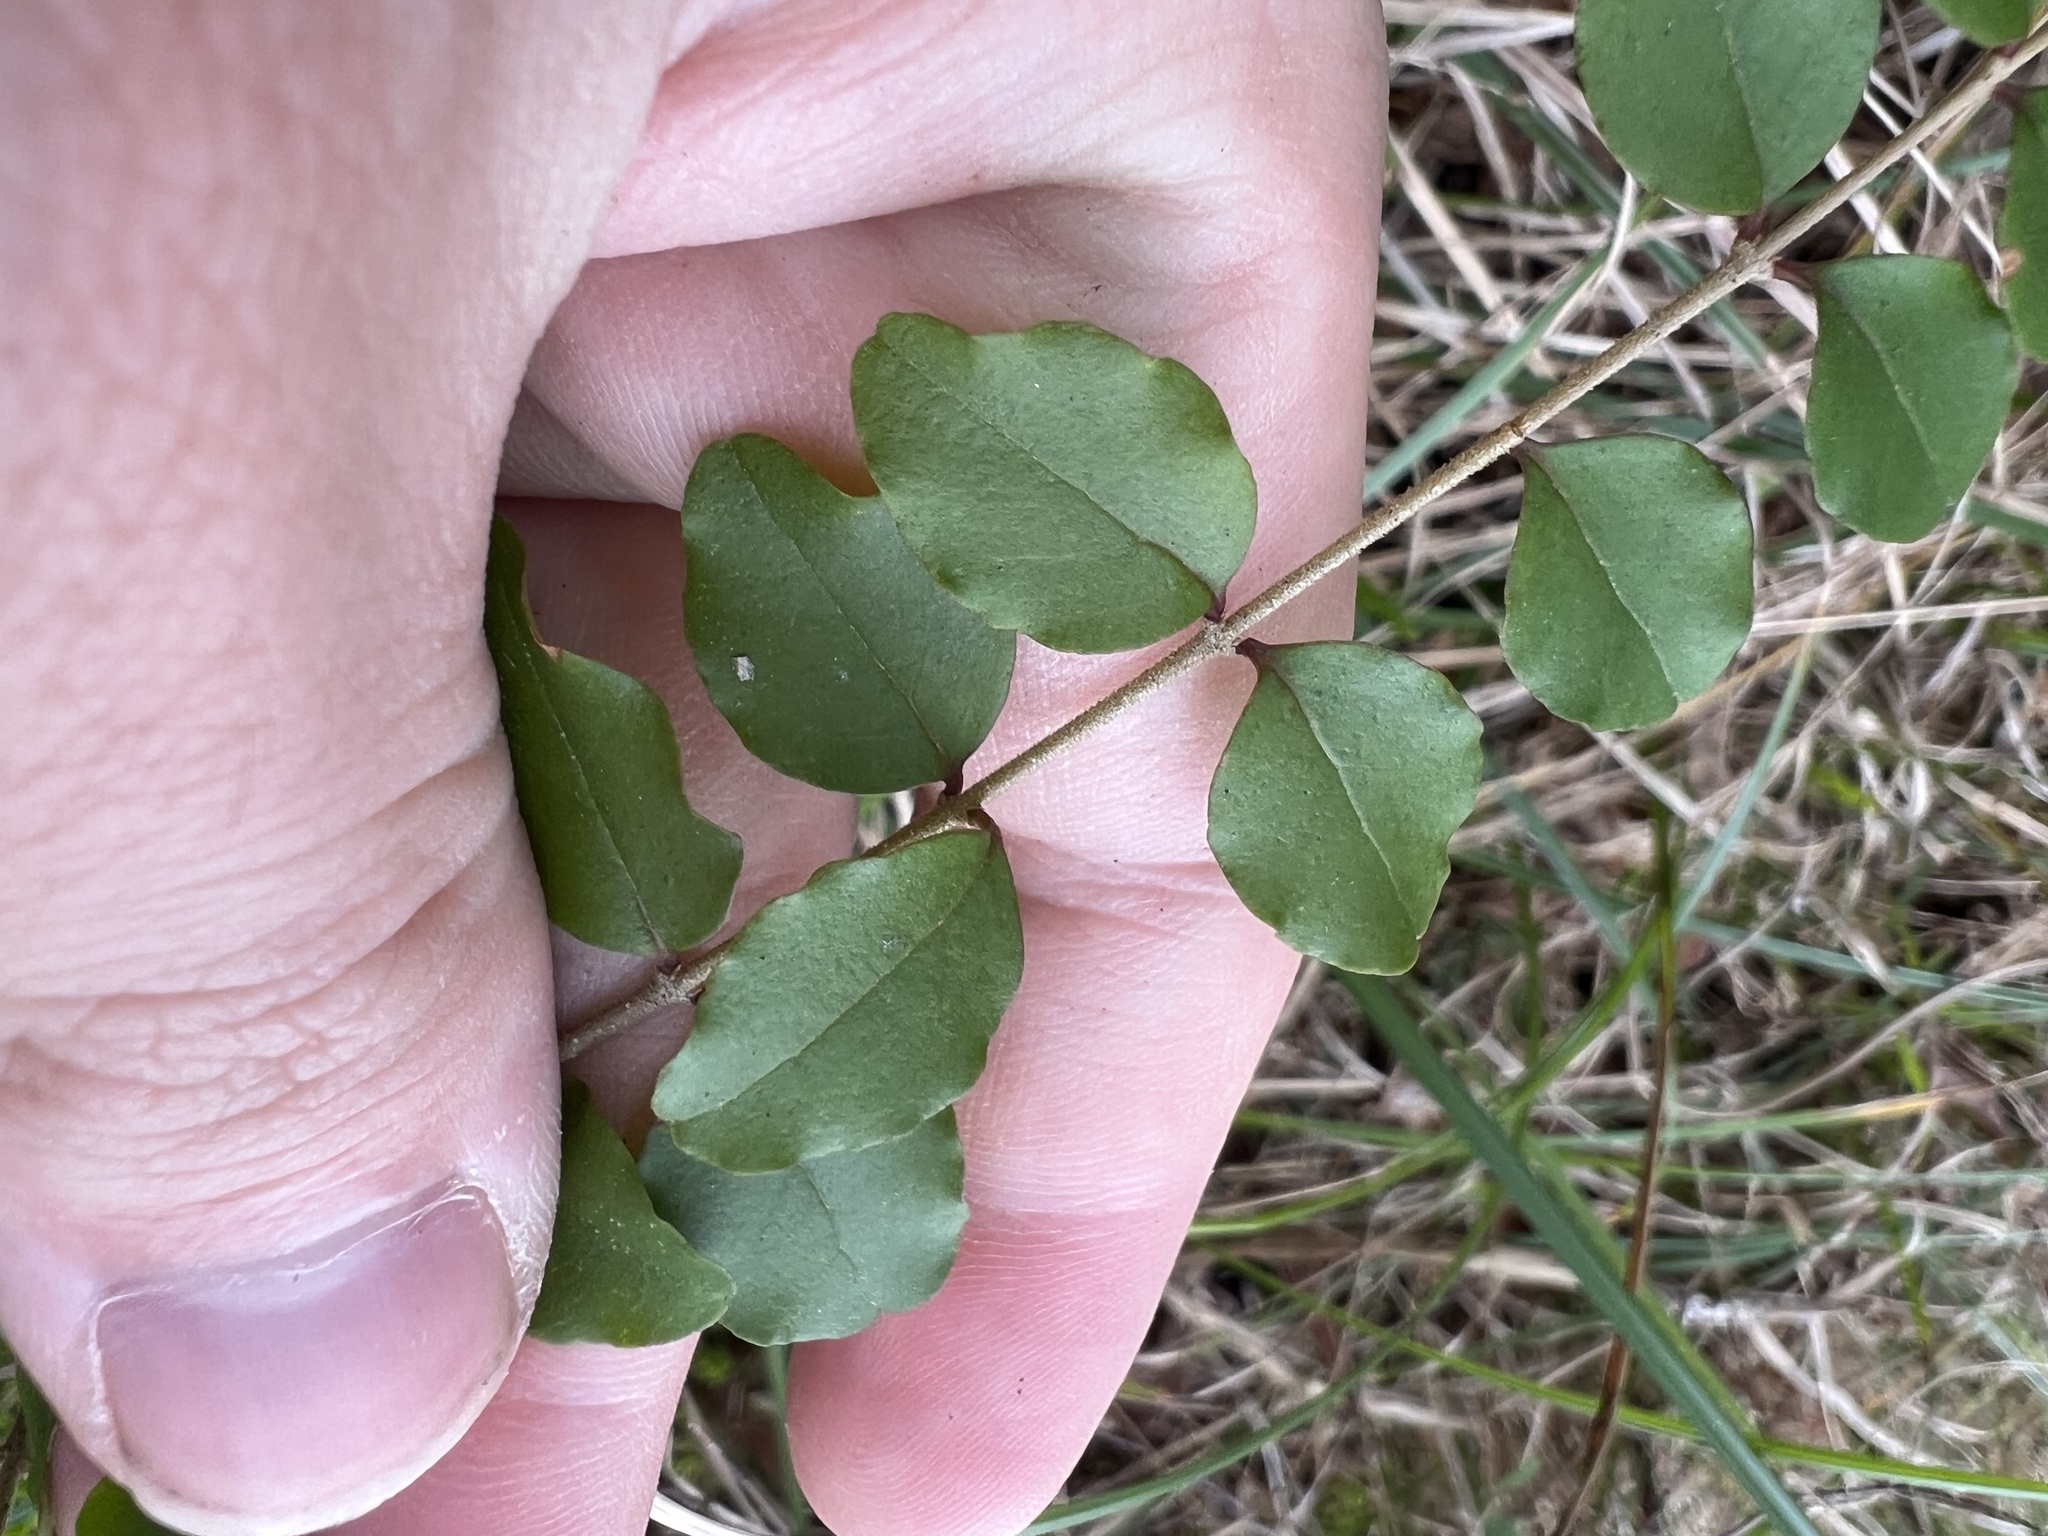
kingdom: Plantae
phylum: Tracheophyta
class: Magnoliopsida
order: Lamiales
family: Oleaceae
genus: Ligustrum
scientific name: Ligustrum sinense
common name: Chinese privet
